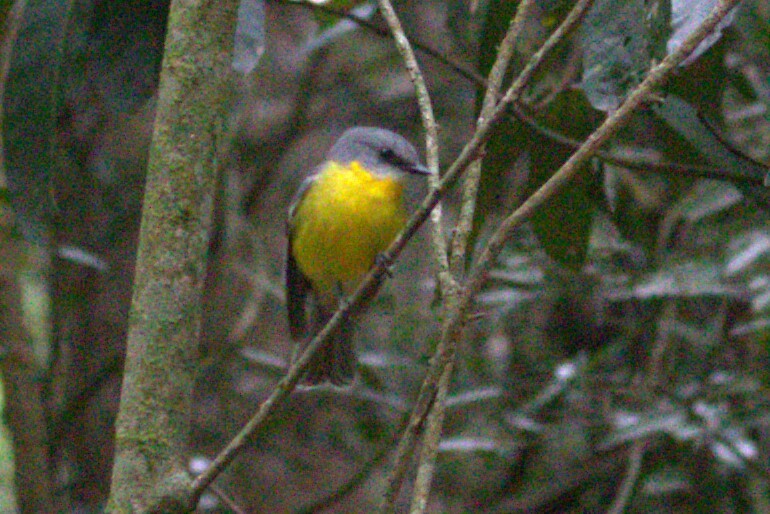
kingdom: Animalia
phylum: Chordata
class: Aves
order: Passeriformes
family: Petroicidae
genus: Eopsaltria
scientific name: Eopsaltria australis
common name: Eastern yellow robin
